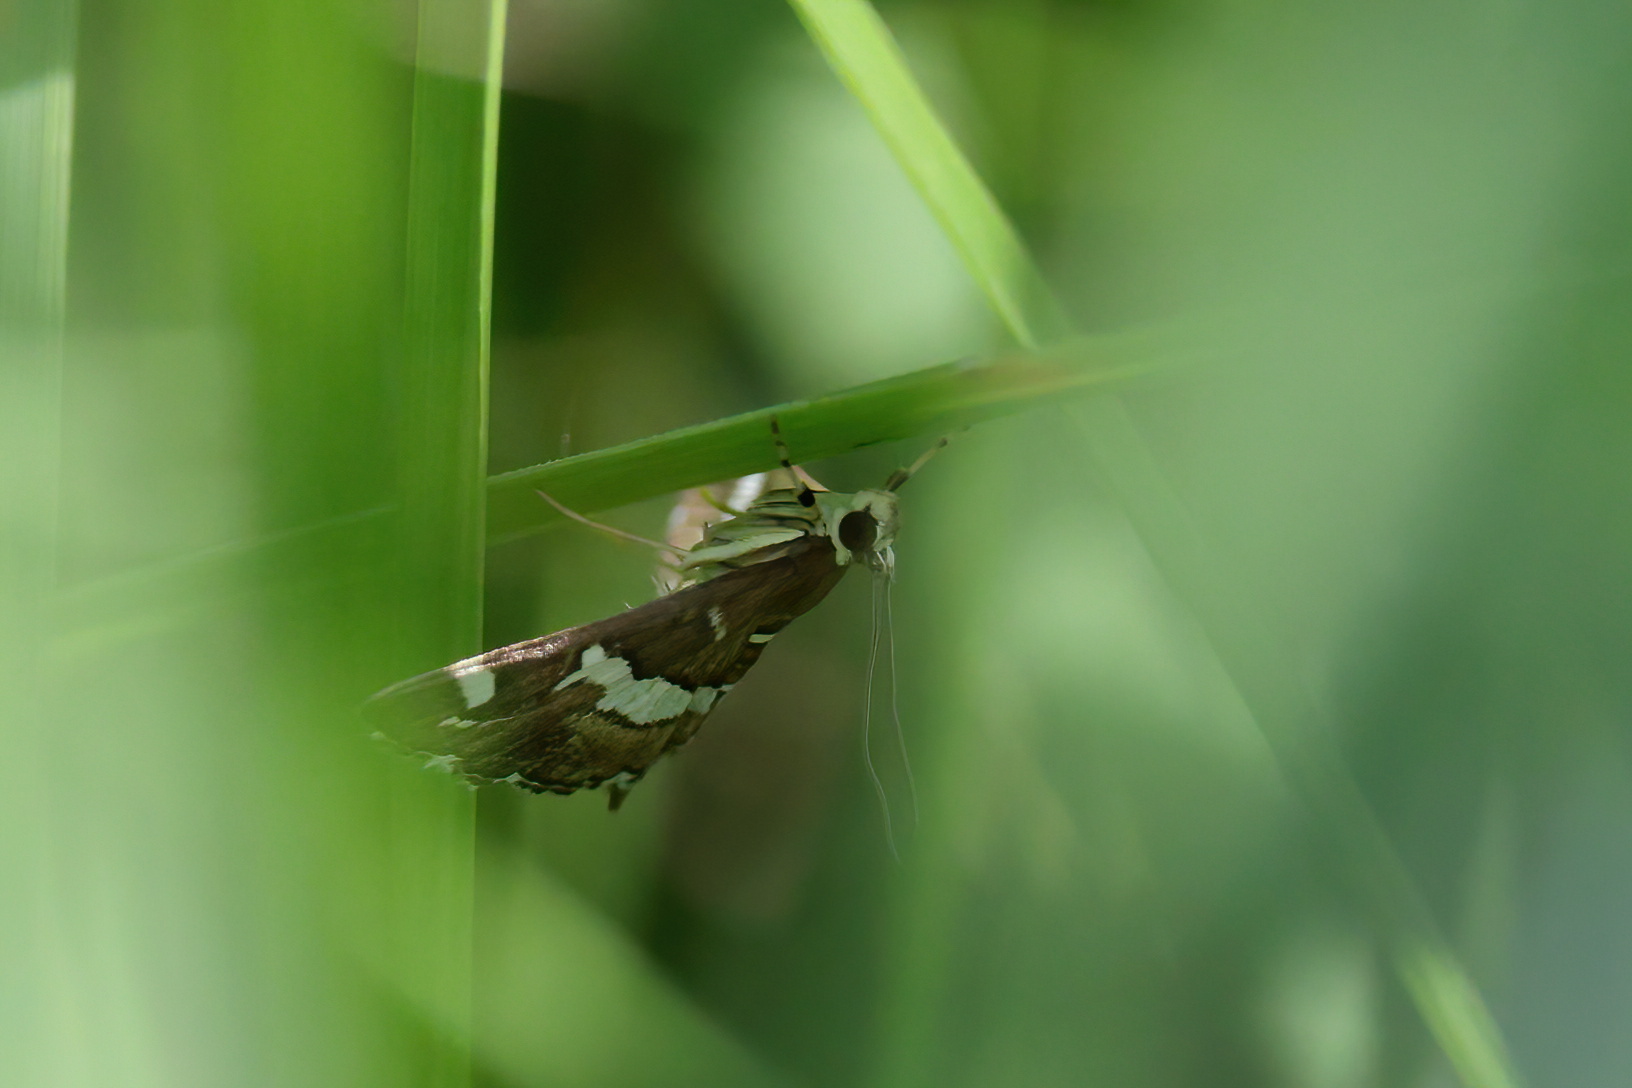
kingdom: Animalia
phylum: Arthropoda
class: Insecta
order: Lepidoptera
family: Crambidae
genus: Spoladea
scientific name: Spoladea recurvalis
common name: Beet webworm moth
